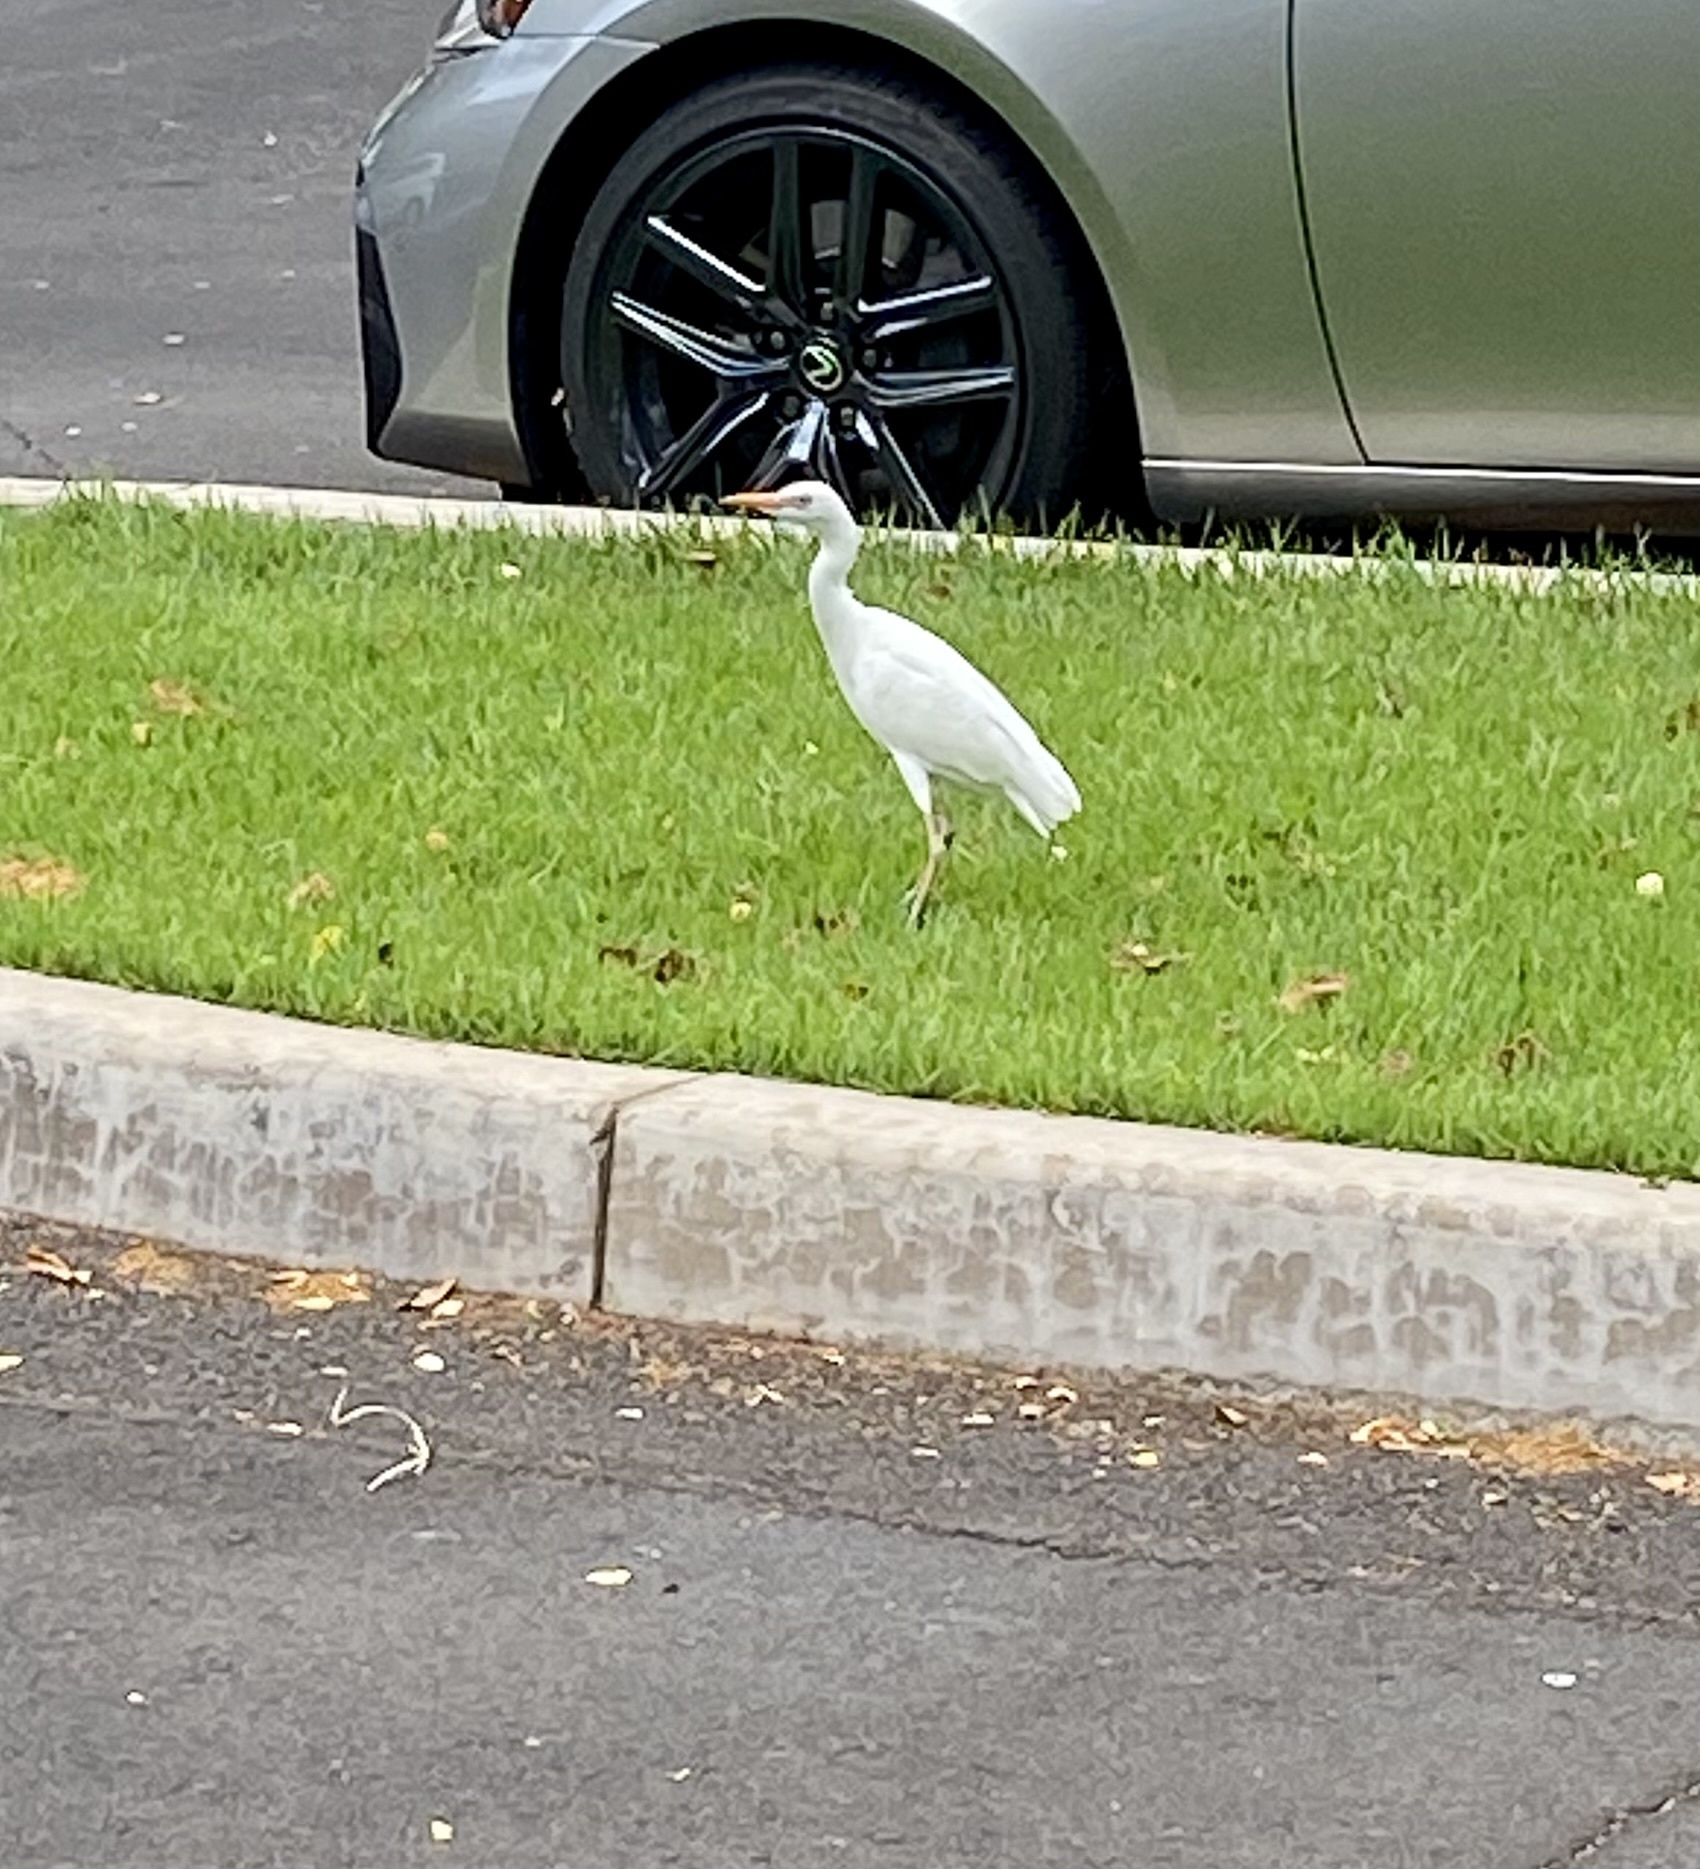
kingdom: Animalia
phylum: Chordata
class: Aves
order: Pelecaniformes
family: Ardeidae
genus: Bubulcus
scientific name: Bubulcus ibis
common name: Cattle egret
